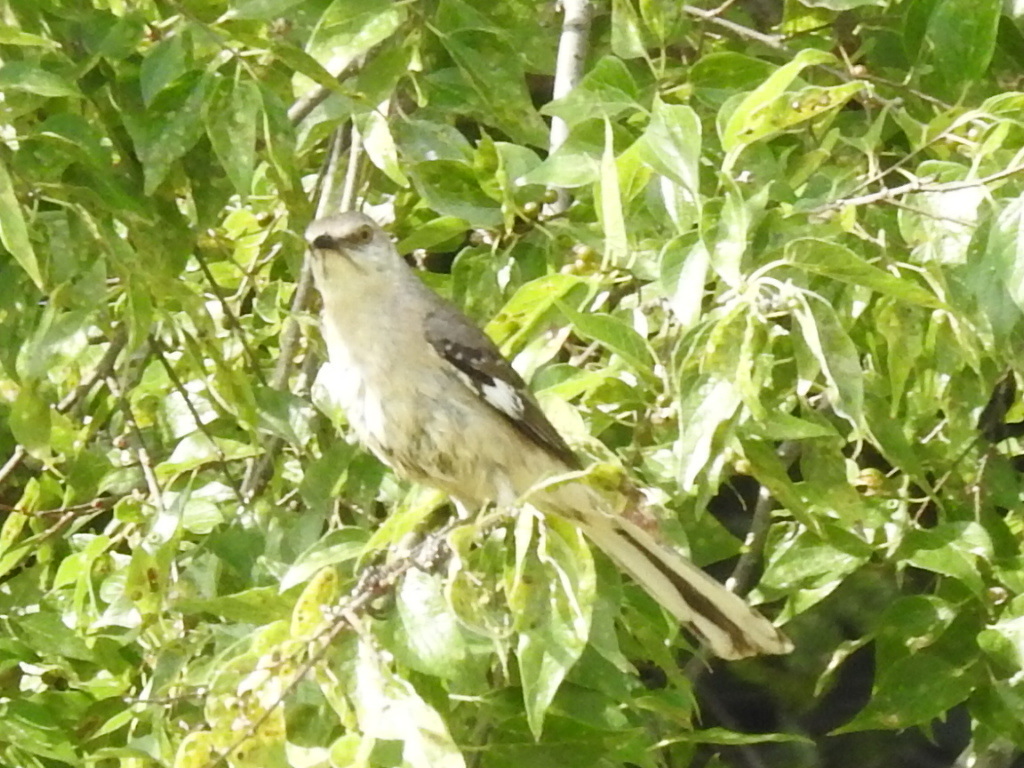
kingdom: Animalia
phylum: Chordata
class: Aves
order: Passeriformes
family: Mimidae
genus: Mimus
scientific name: Mimus polyglottos
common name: Northern mockingbird
